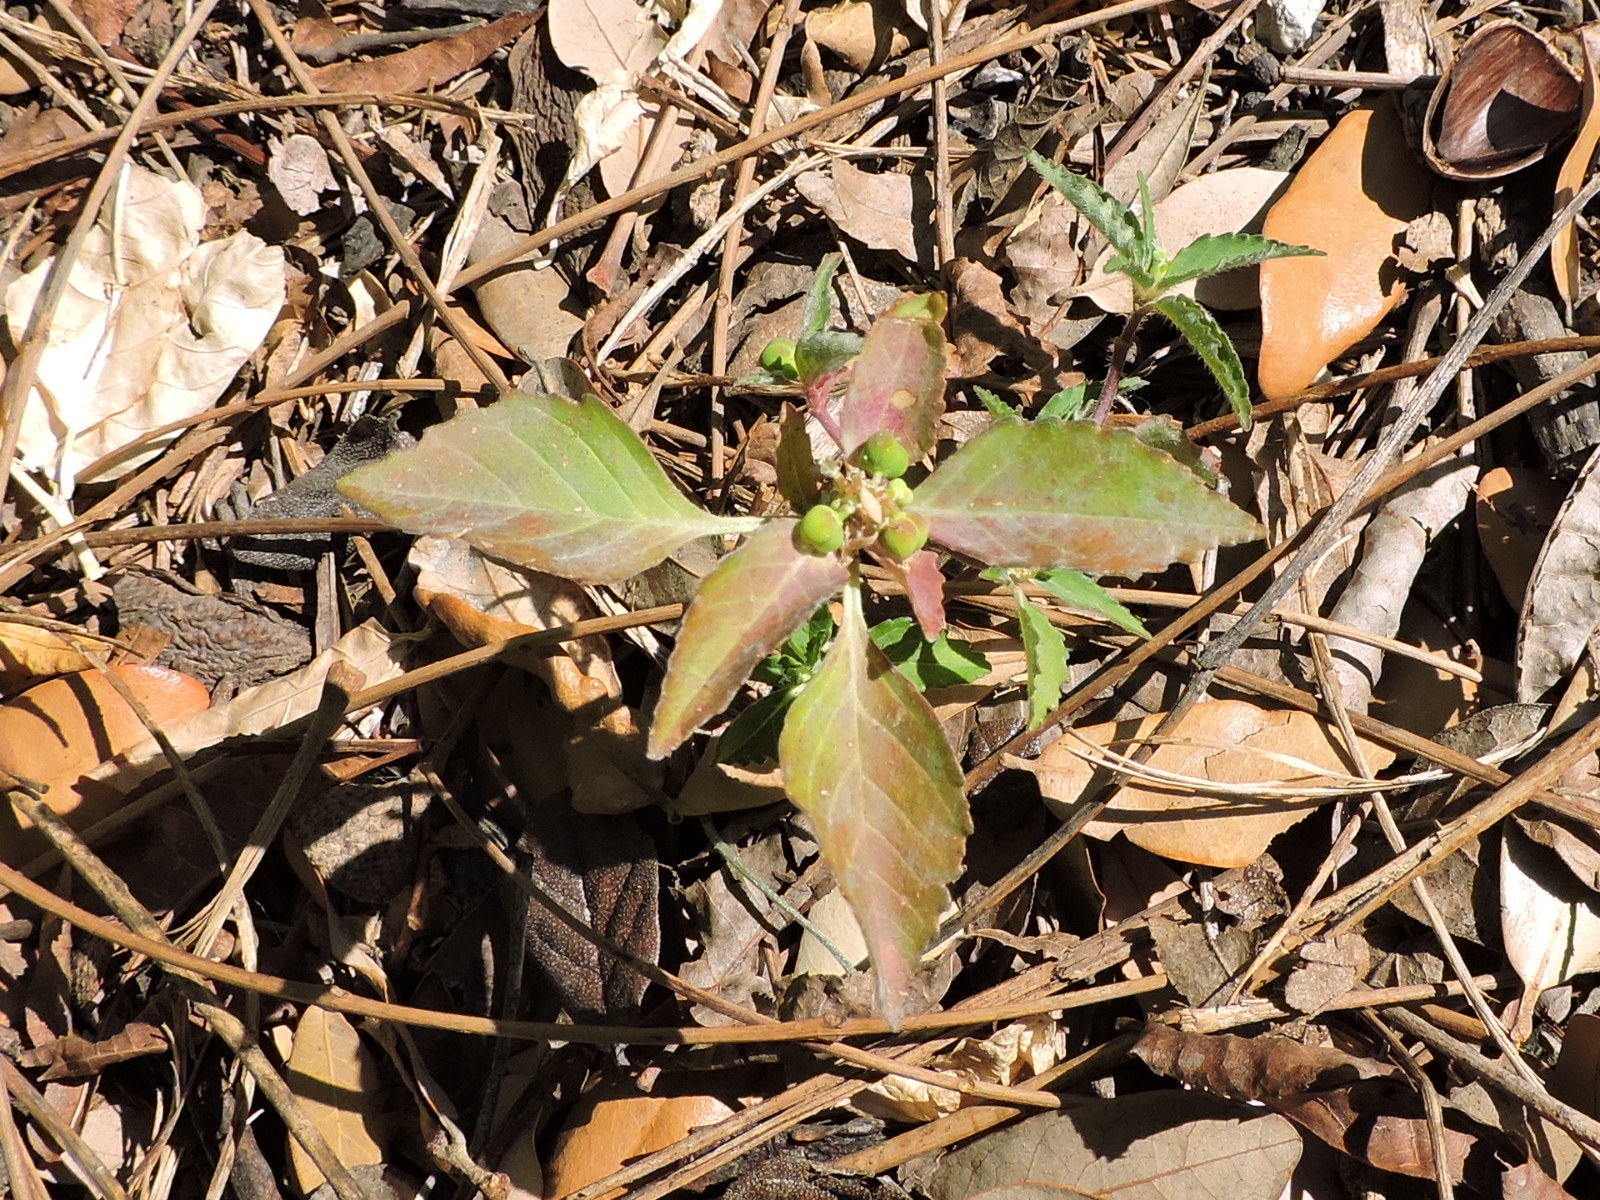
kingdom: Plantae
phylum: Tracheophyta
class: Magnoliopsida
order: Malpighiales
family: Euphorbiaceae
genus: Euphorbia
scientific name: Euphorbia dentata
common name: Dentate spurge
